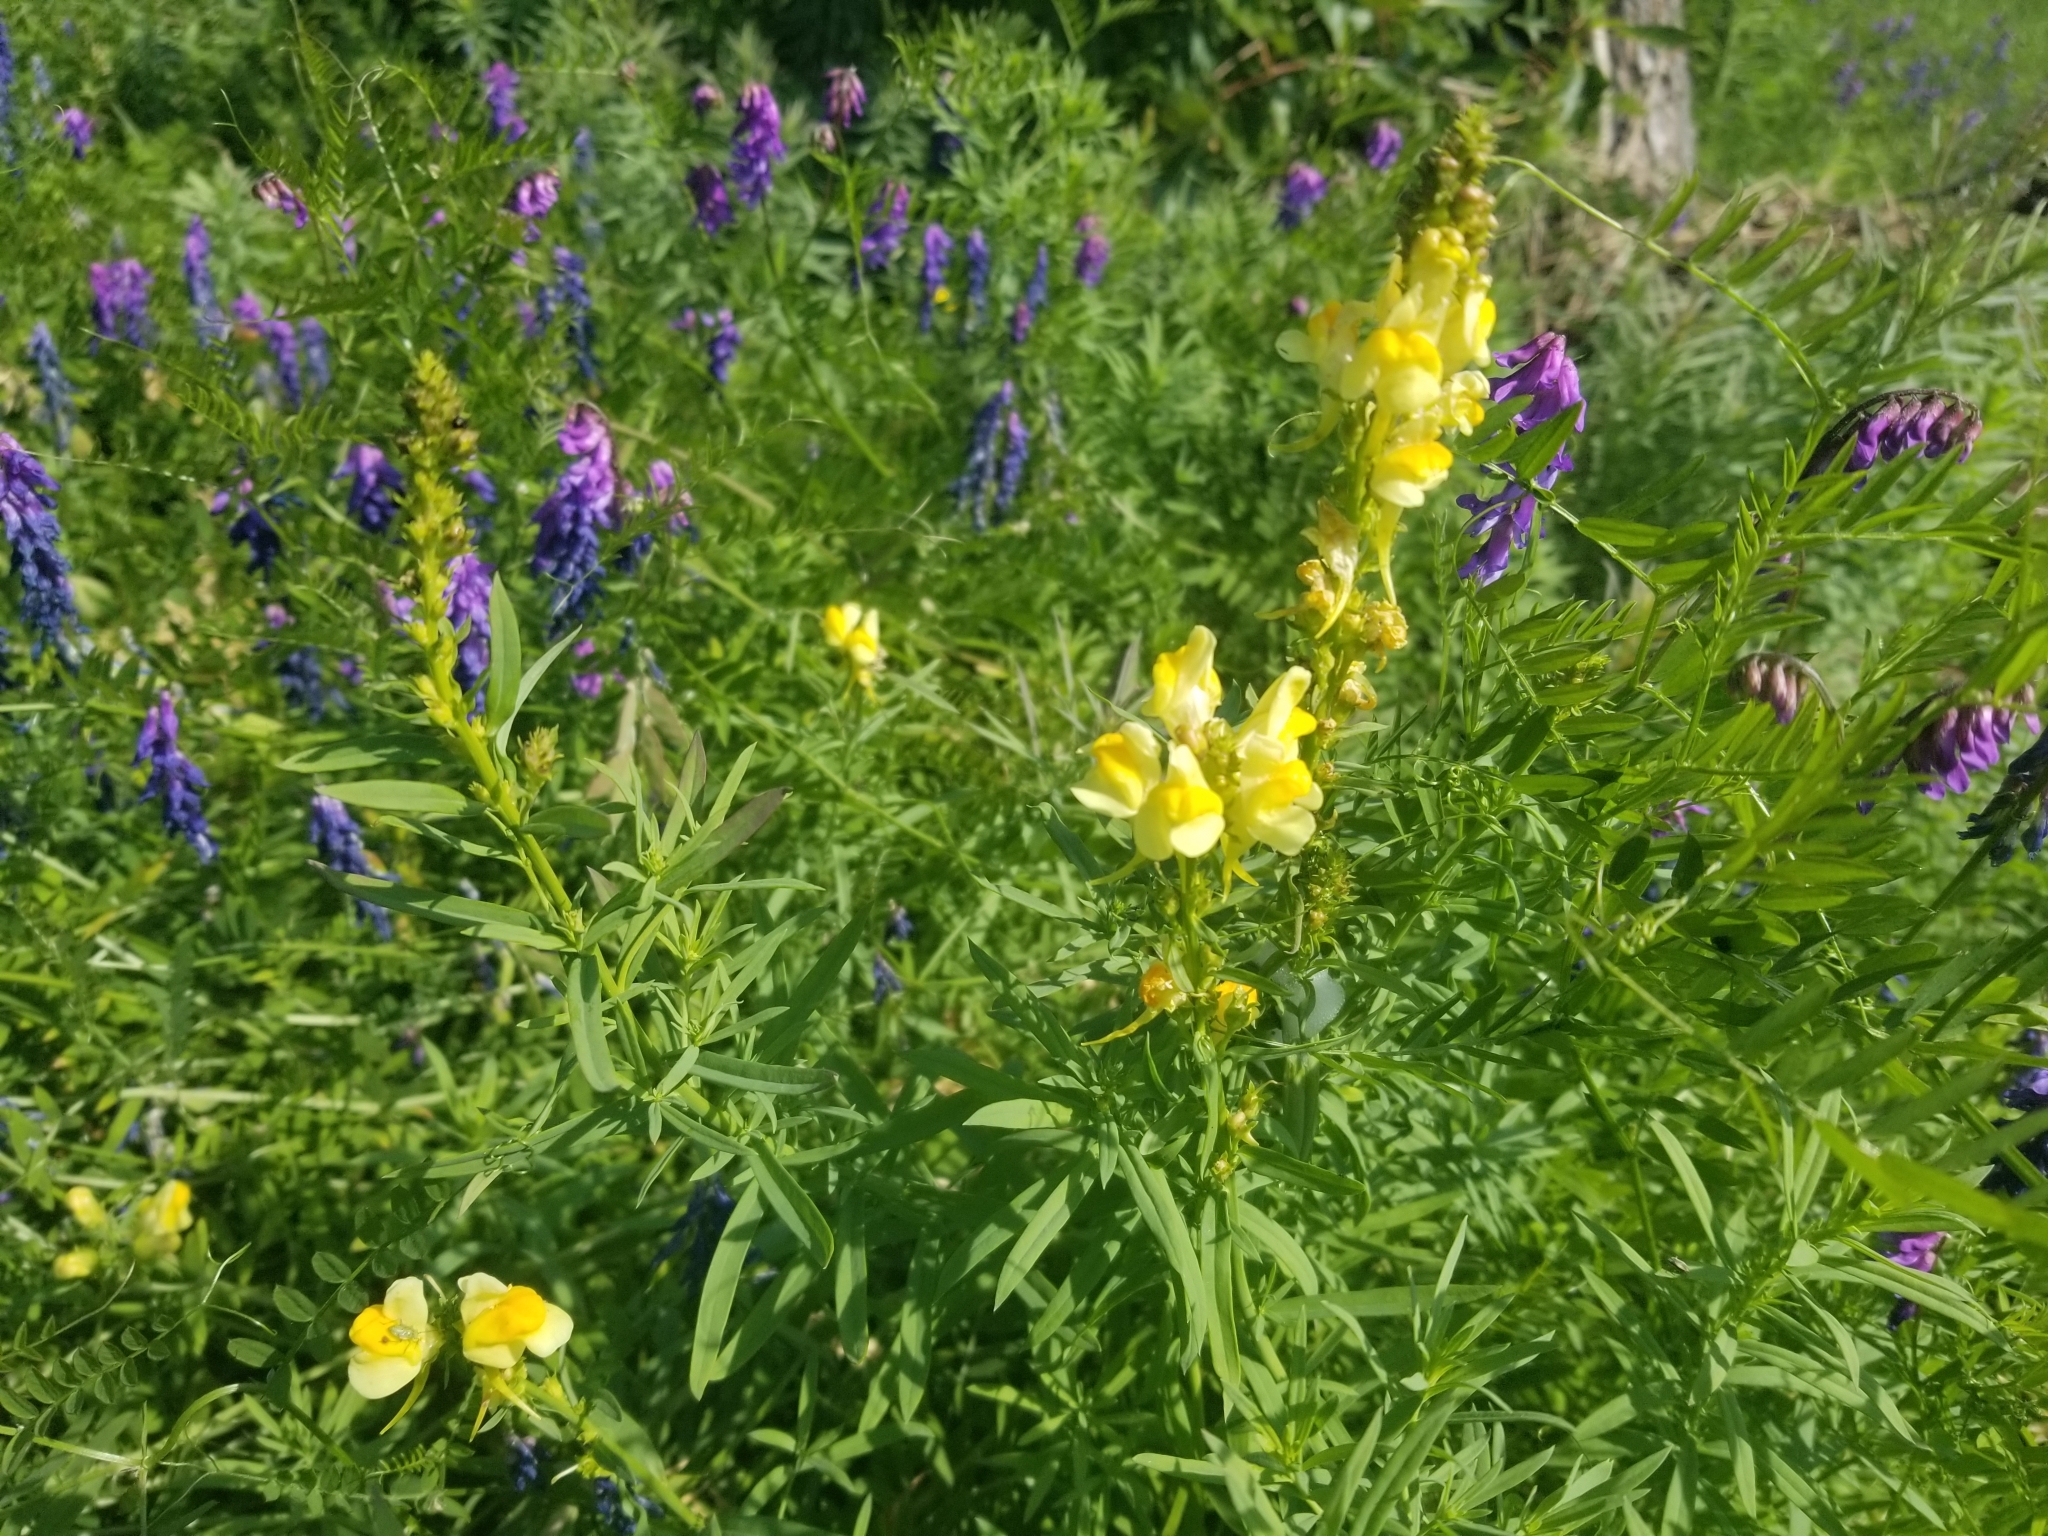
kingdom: Plantae
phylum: Tracheophyta
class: Magnoliopsida
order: Lamiales
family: Plantaginaceae
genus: Linaria
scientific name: Linaria vulgaris
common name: Butter and eggs
